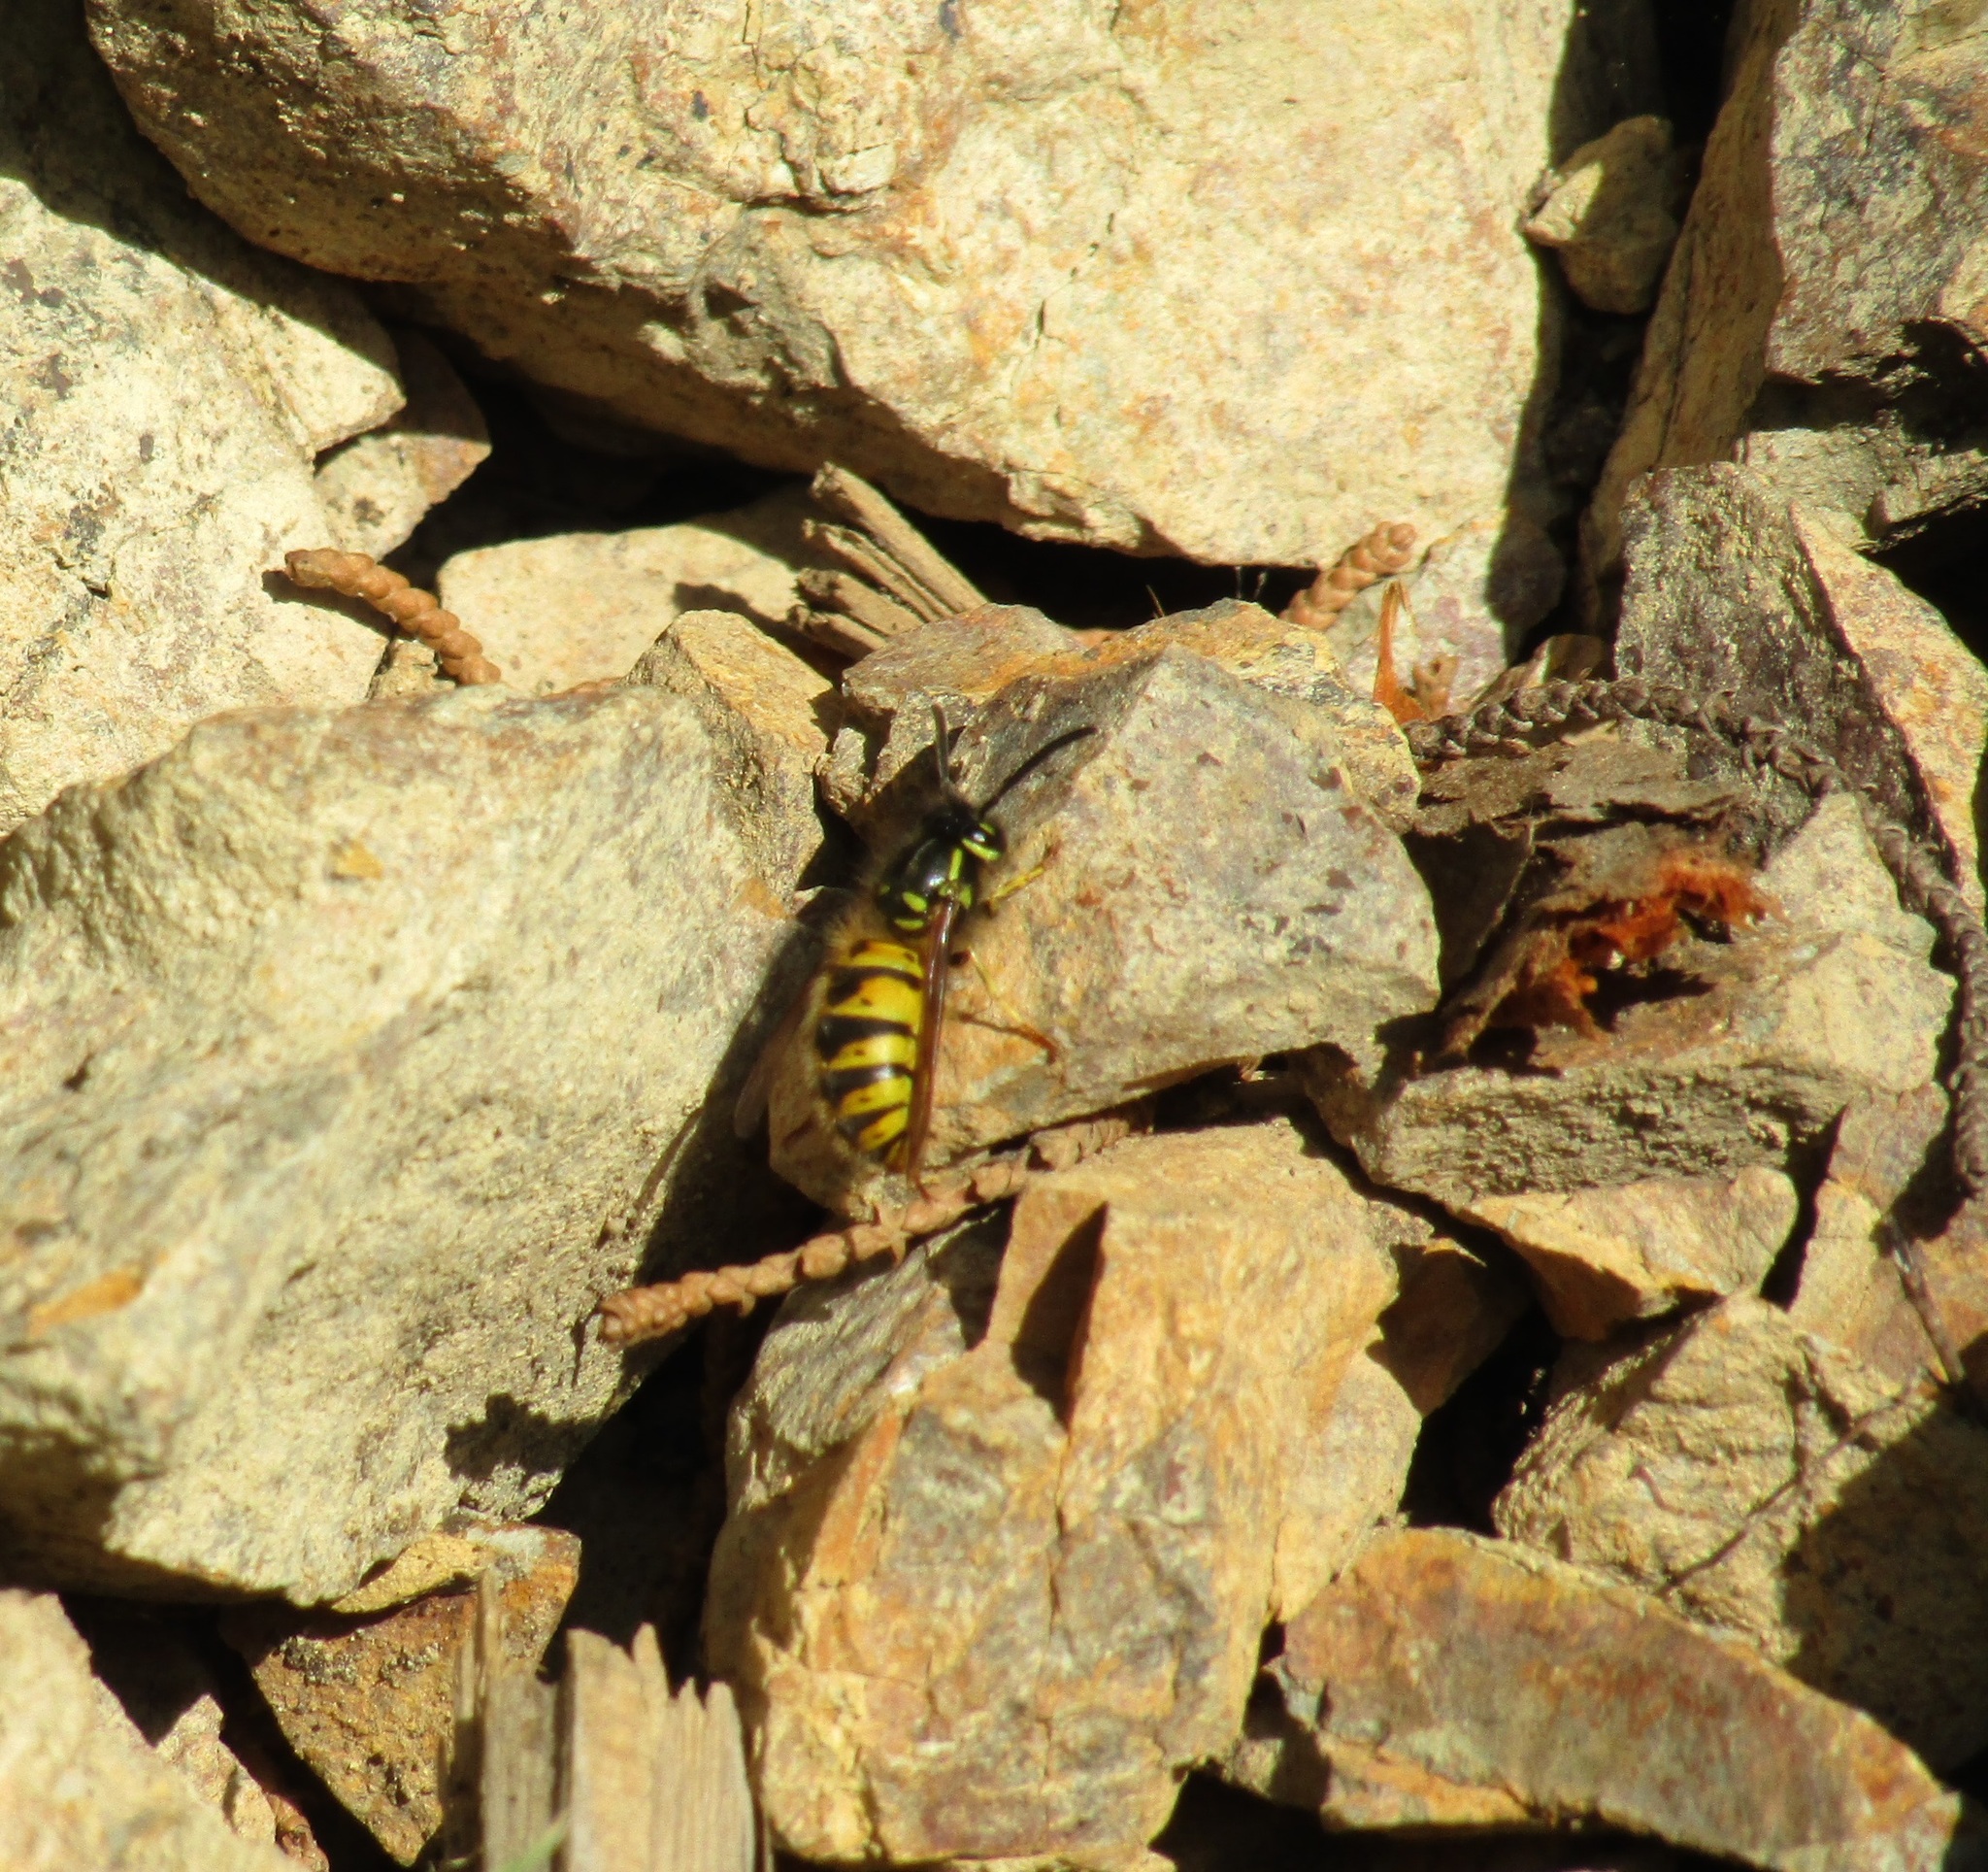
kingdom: Animalia
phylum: Arthropoda
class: Insecta
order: Hymenoptera
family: Vespidae
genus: Vespula
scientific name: Vespula vulgaris
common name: Common wasp
